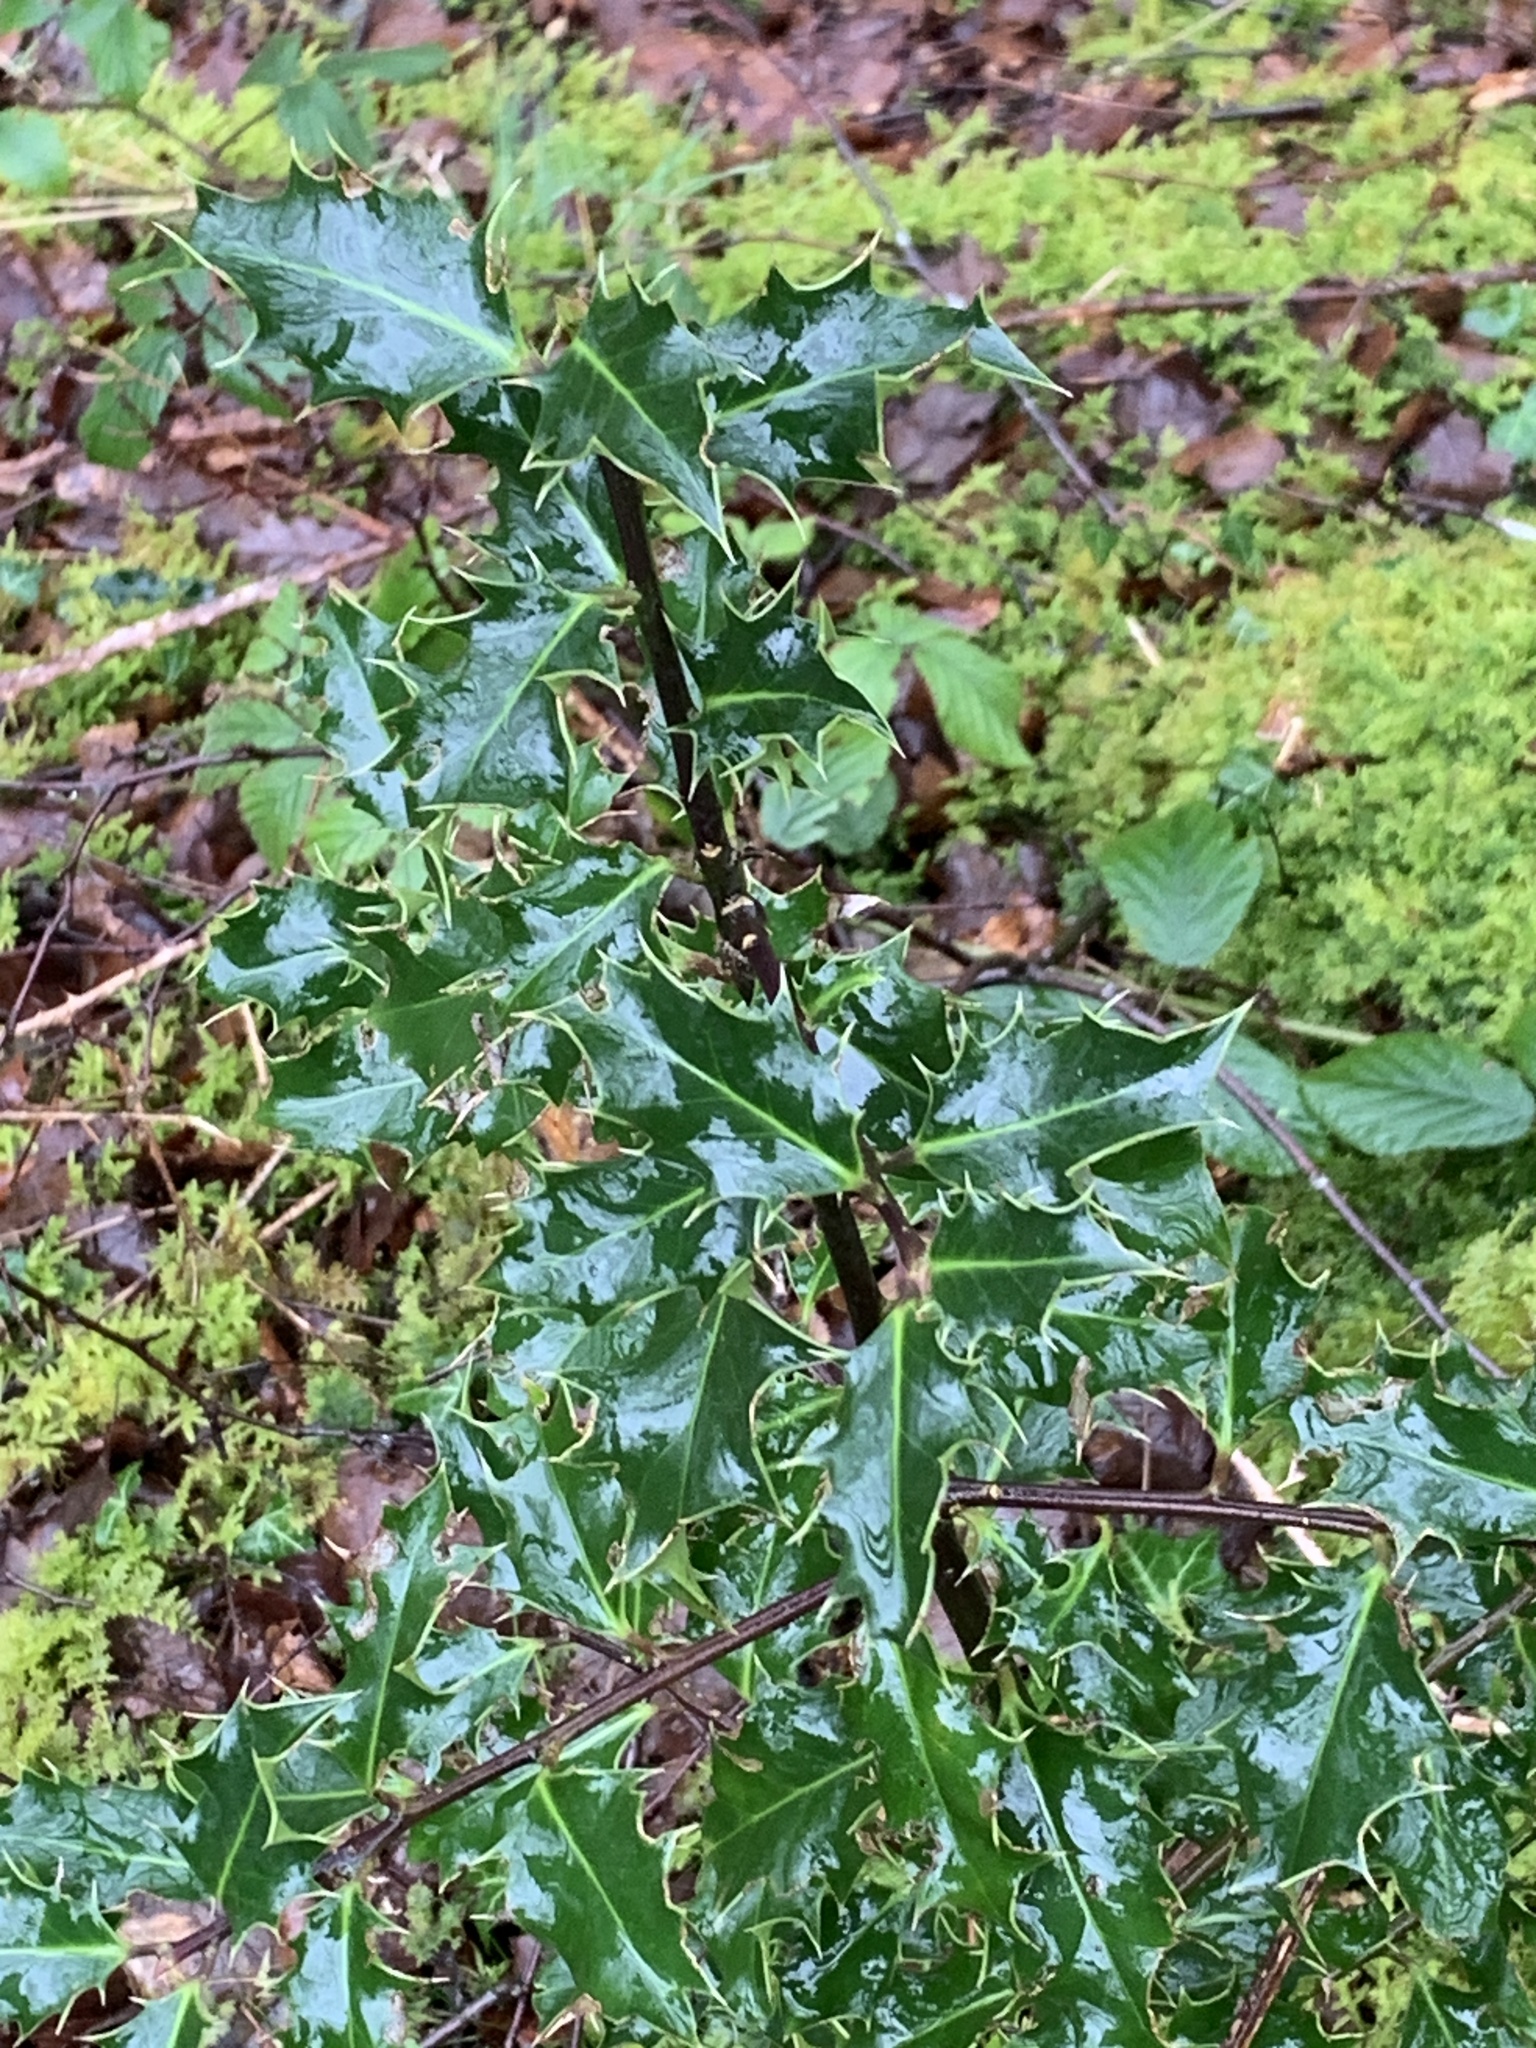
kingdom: Plantae
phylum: Tracheophyta
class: Magnoliopsida
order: Aquifoliales
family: Aquifoliaceae
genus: Ilex
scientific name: Ilex aquifolium
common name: English holly
